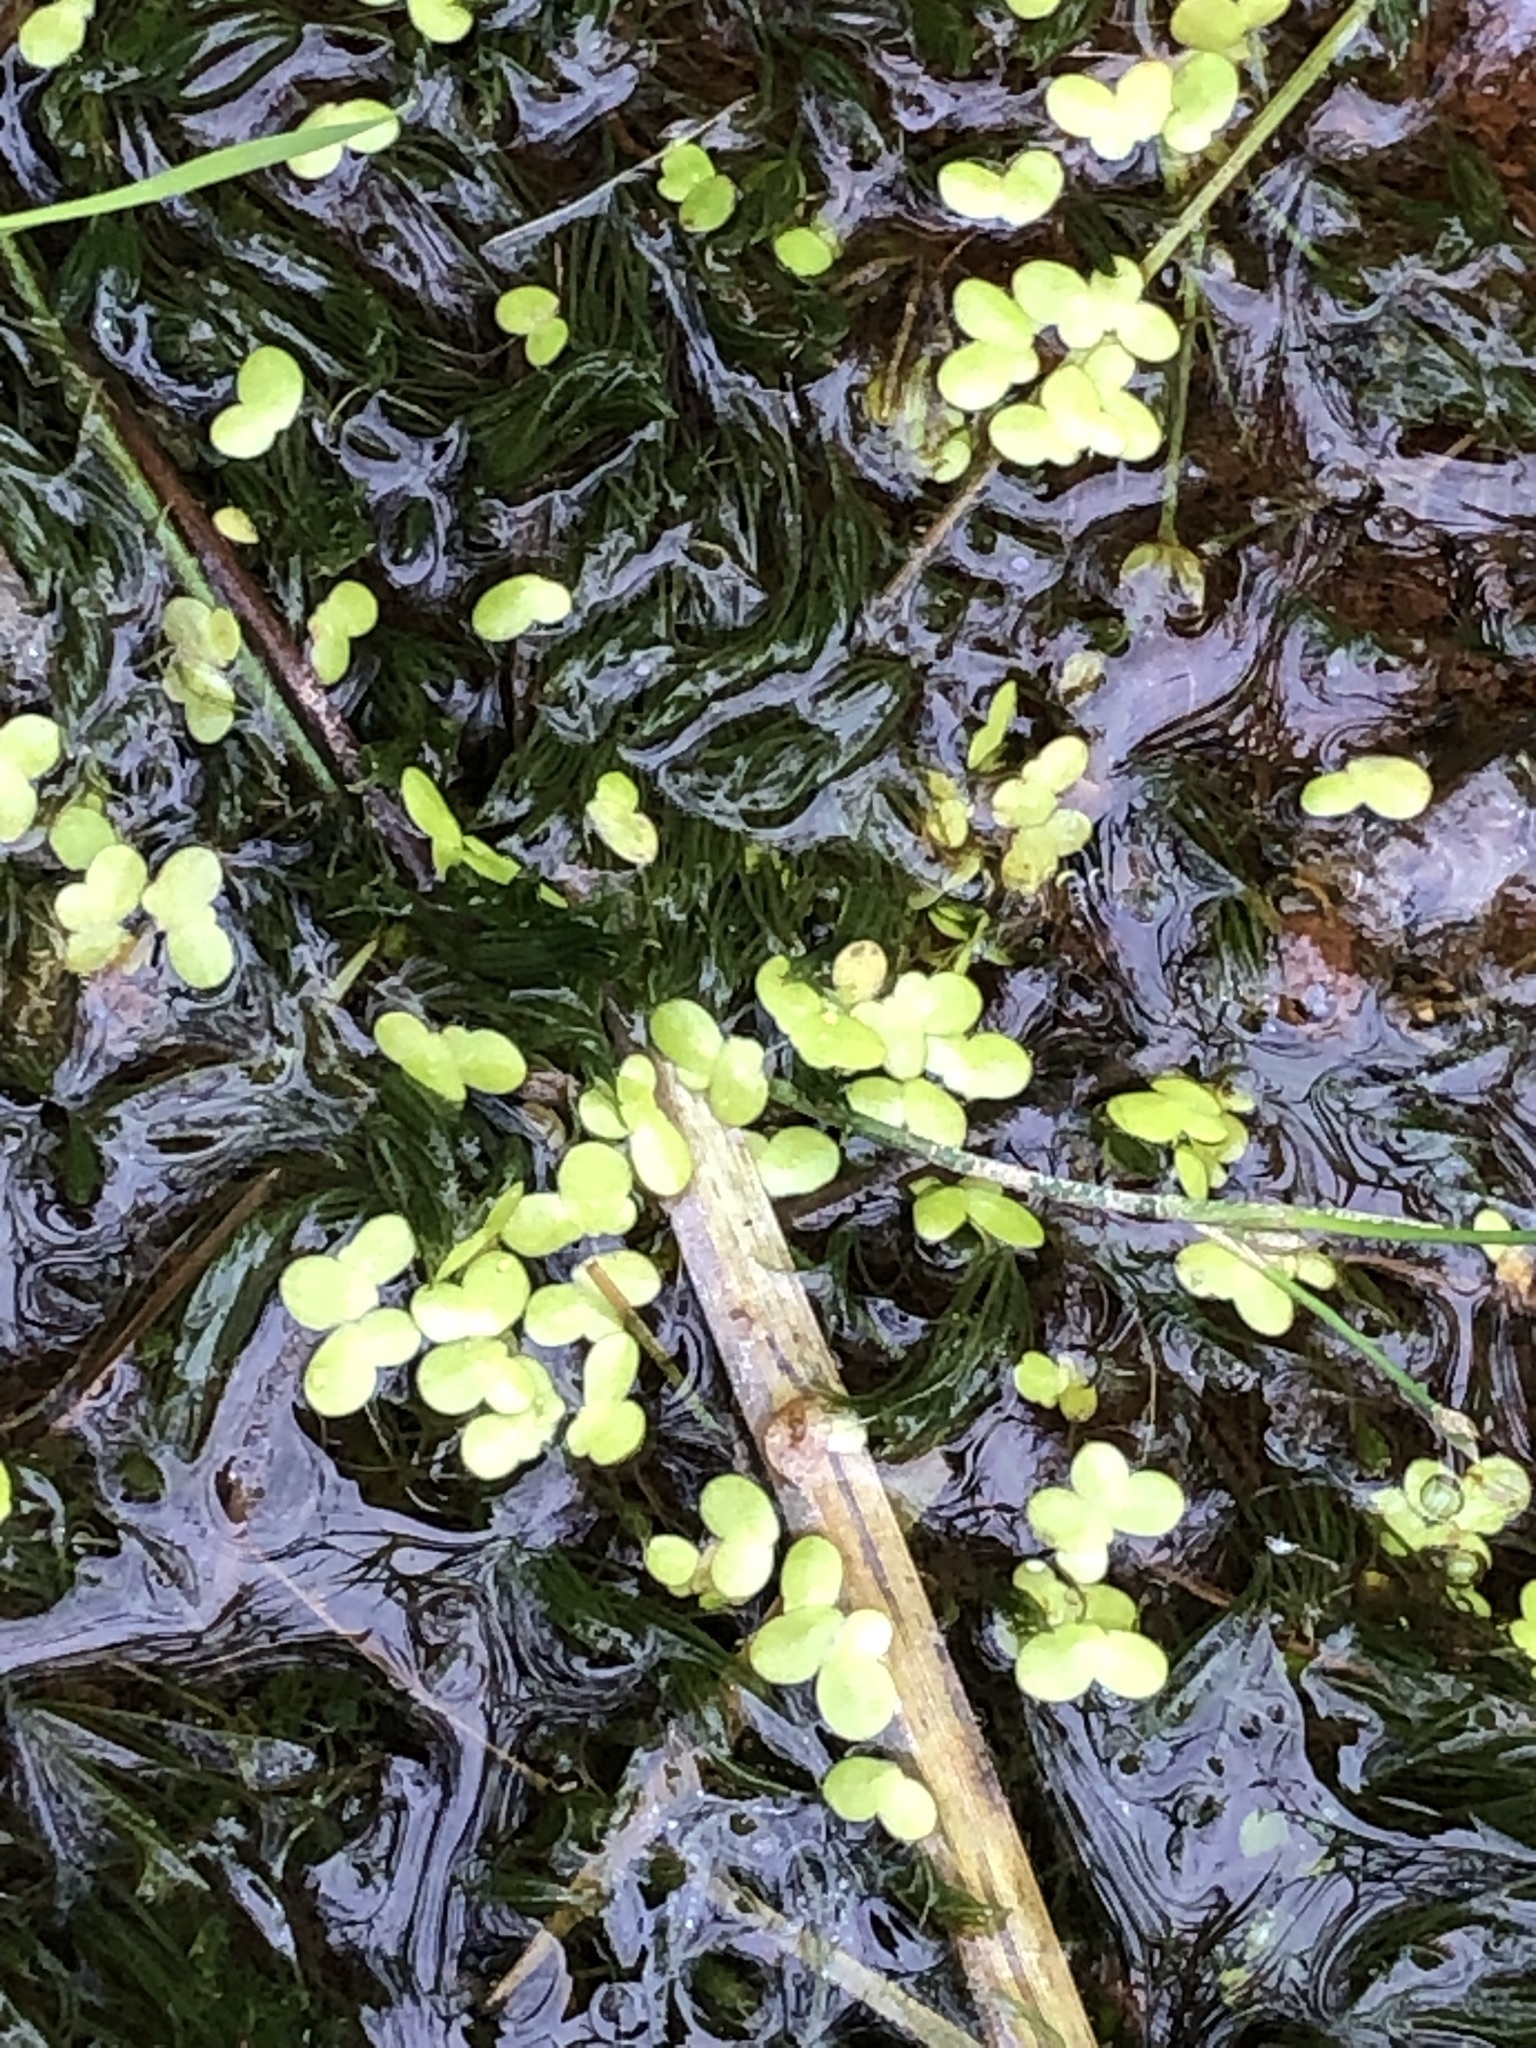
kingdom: Plantae
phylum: Tracheophyta
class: Liliopsida
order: Alismatales
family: Araceae
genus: Lemna
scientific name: Lemna minor
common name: Common duckweed
